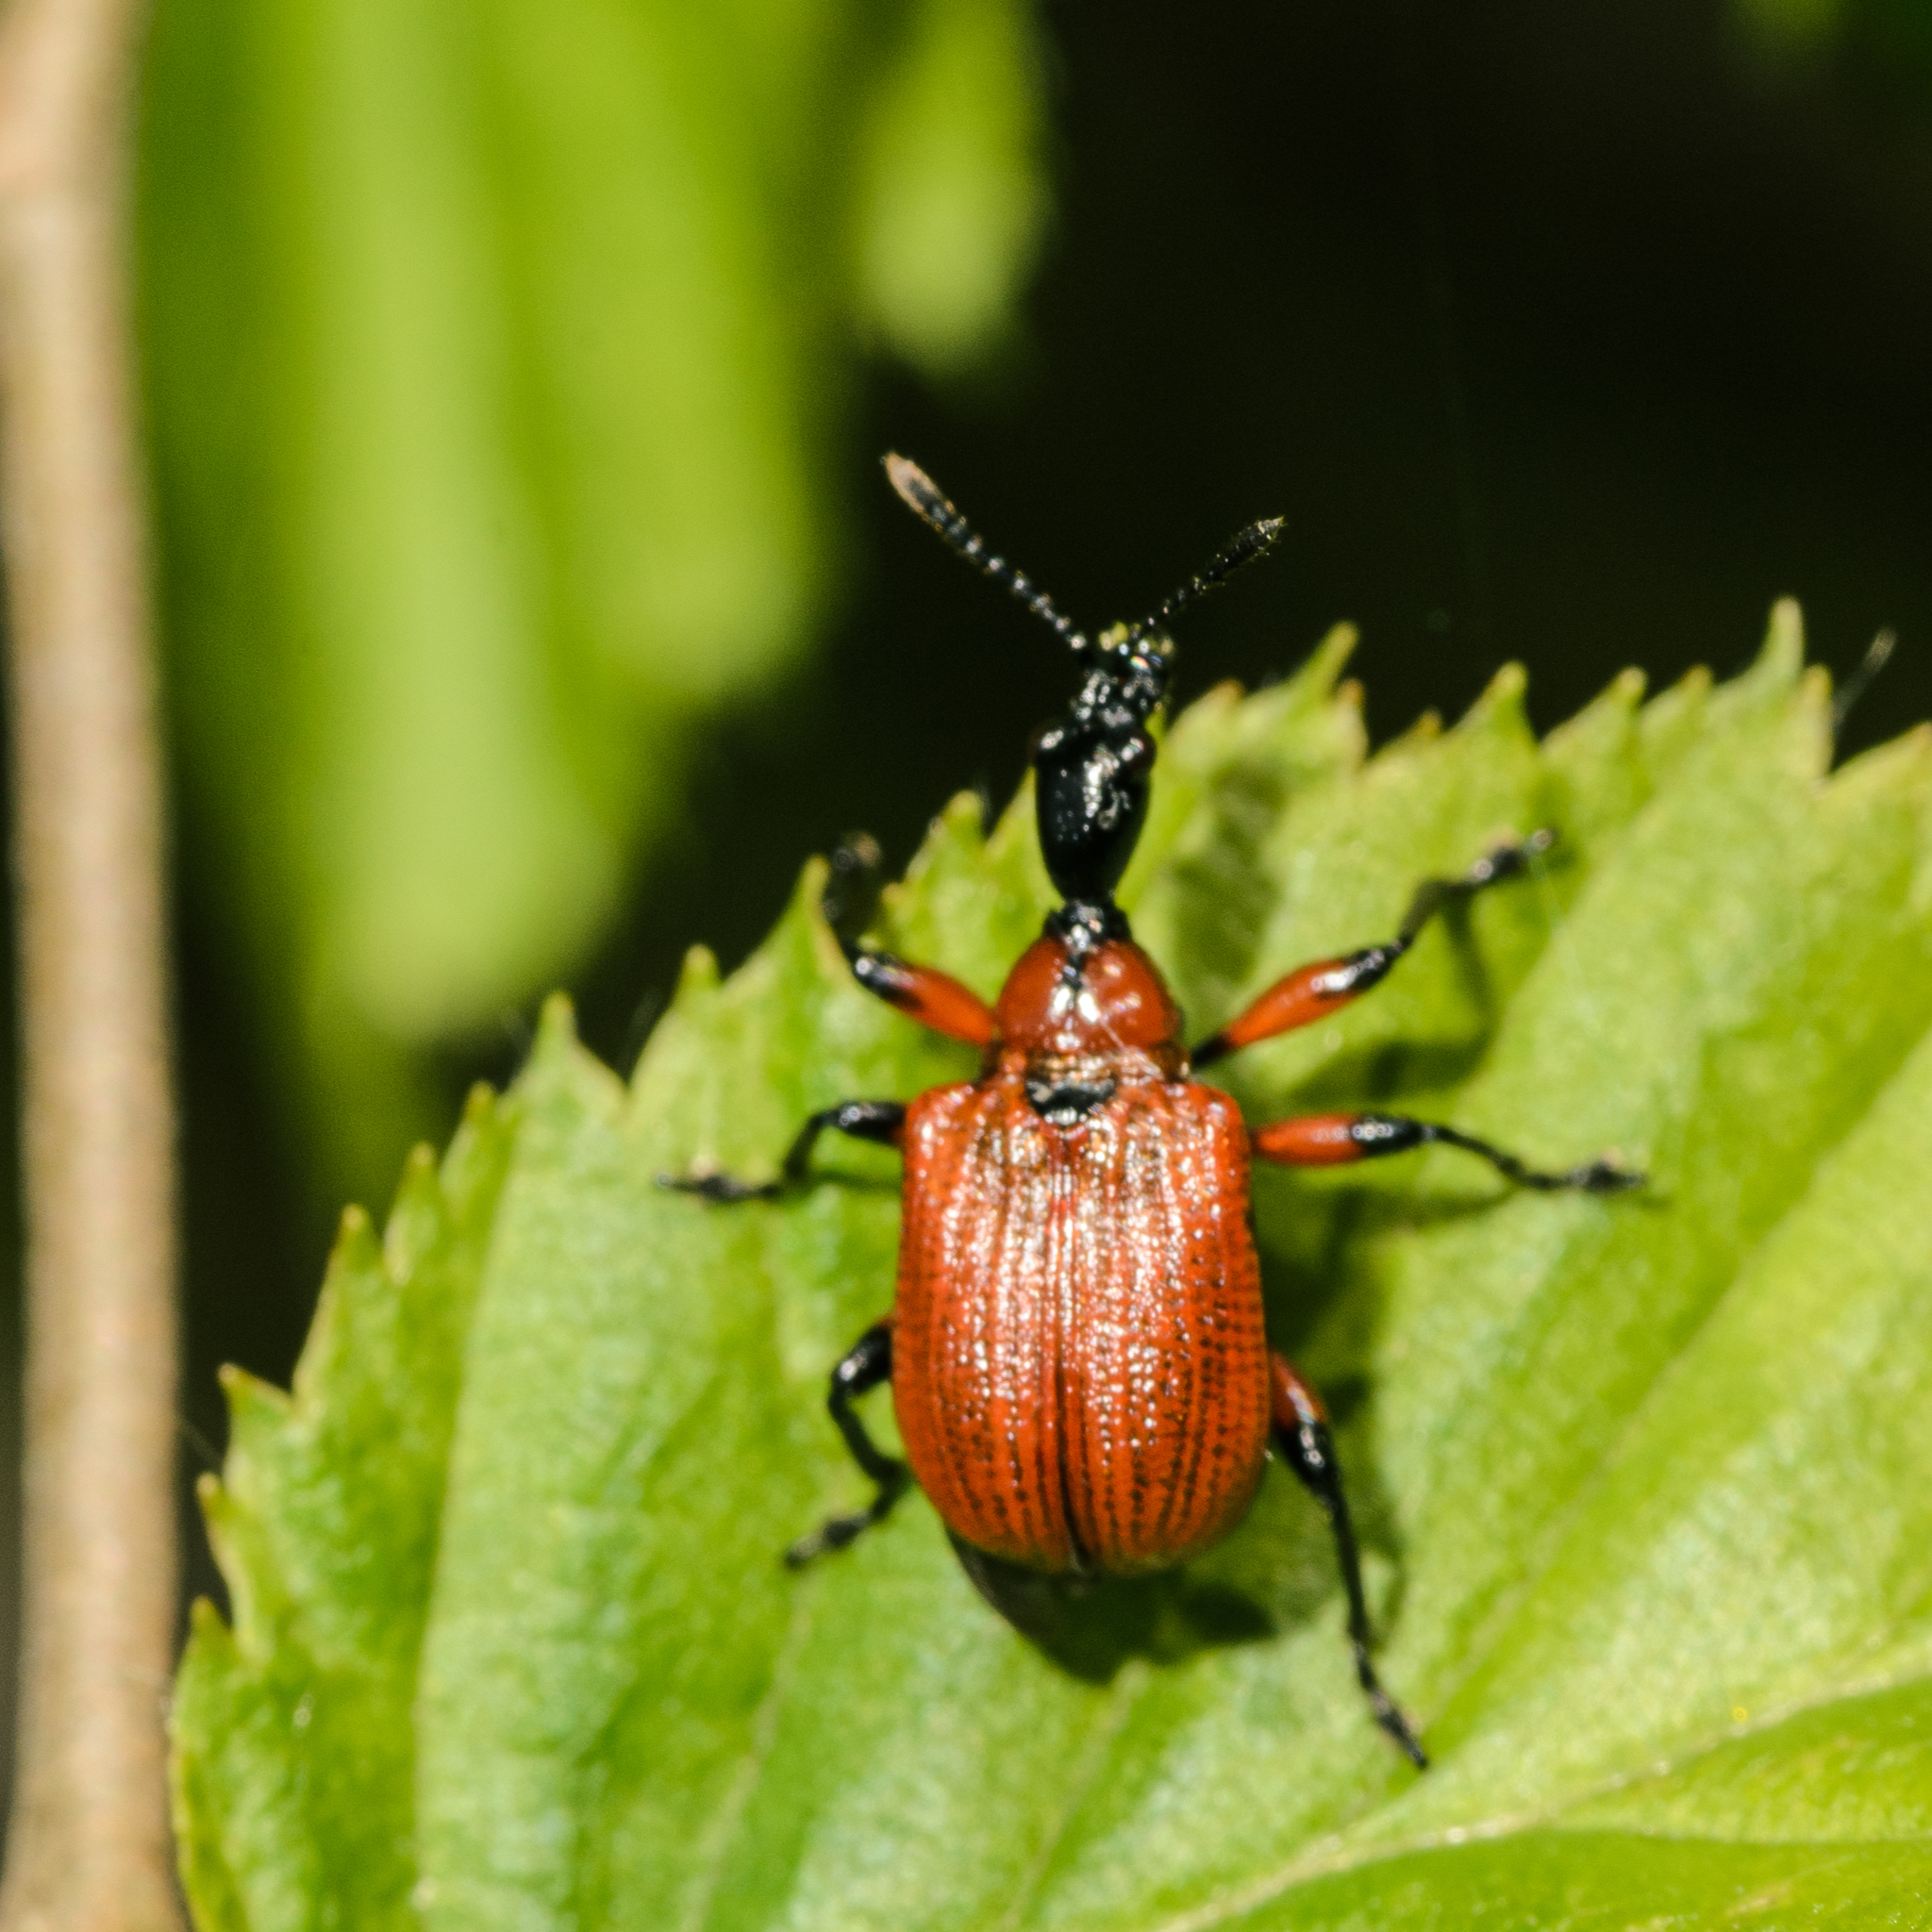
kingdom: Animalia
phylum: Arthropoda
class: Insecta
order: Coleoptera
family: Attelabidae
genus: Apoderus
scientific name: Apoderus coryli
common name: Hazel leaf roller
